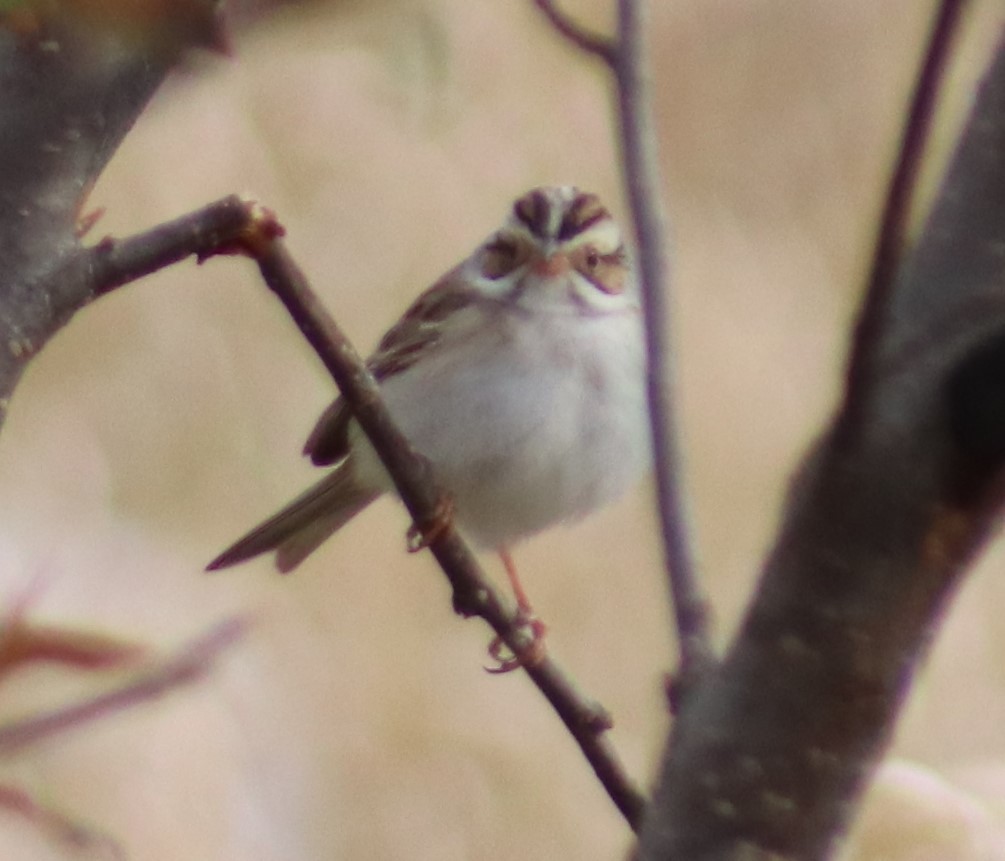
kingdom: Animalia
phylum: Chordata
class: Aves
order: Passeriformes
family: Passerellidae
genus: Spizella
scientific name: Spizella pallida
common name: Clay-colored sparrow
